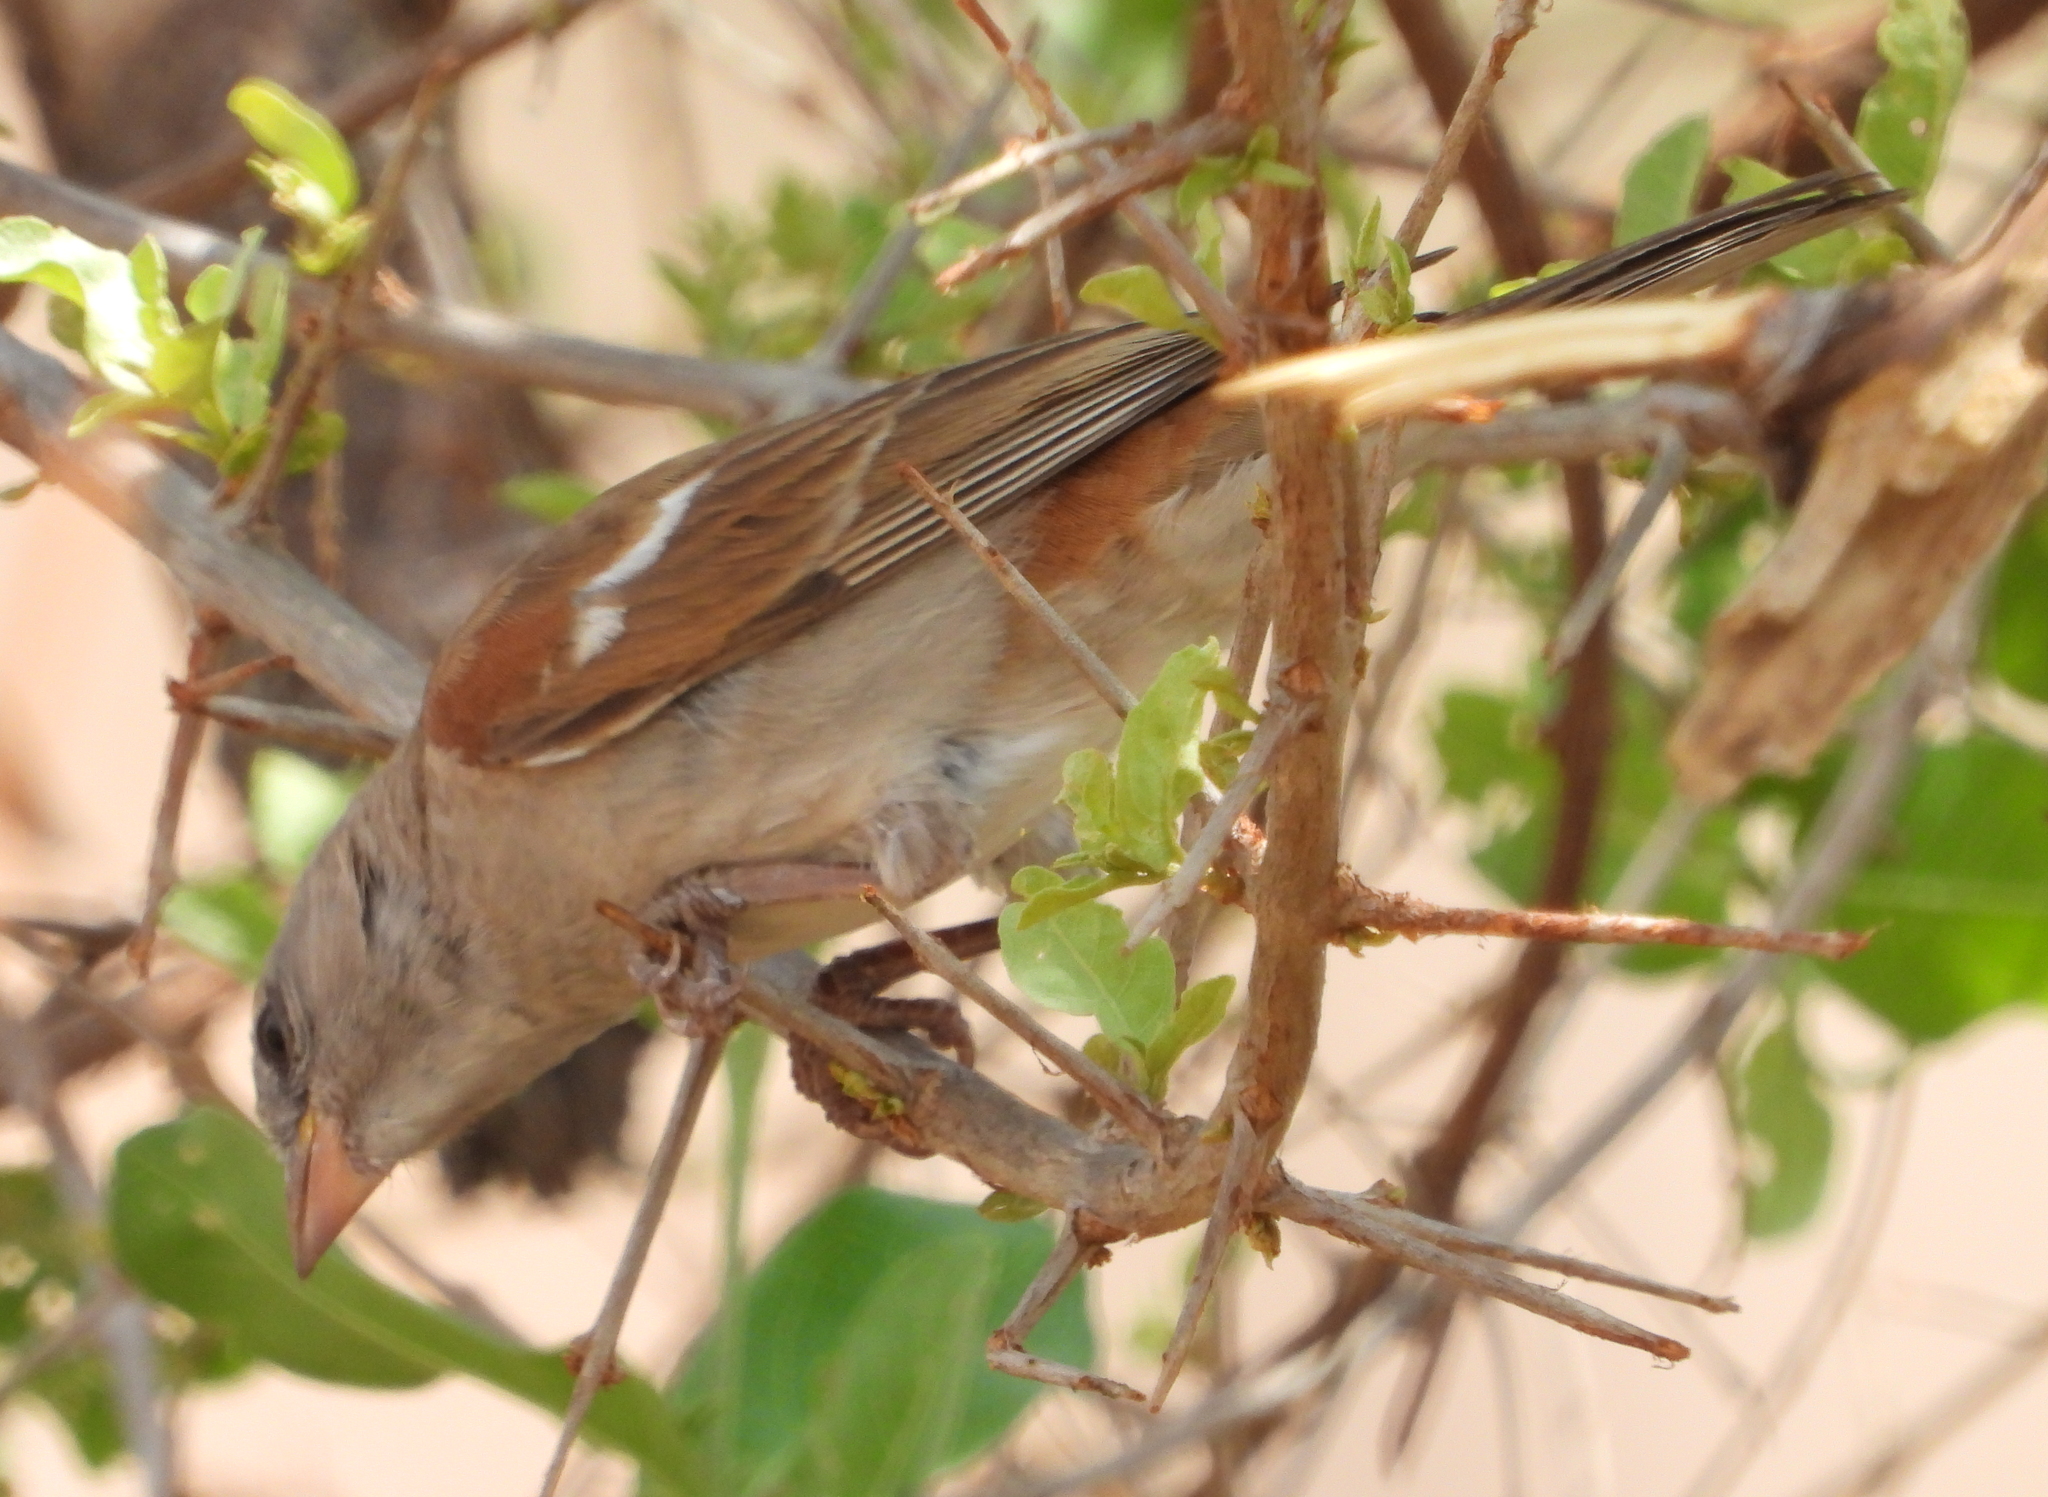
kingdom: Animalia
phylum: Chordata
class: Aves
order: Passeriformes
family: Passeridae
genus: Passer
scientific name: Passer diffusus
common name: Southern grey-headed sparrow
